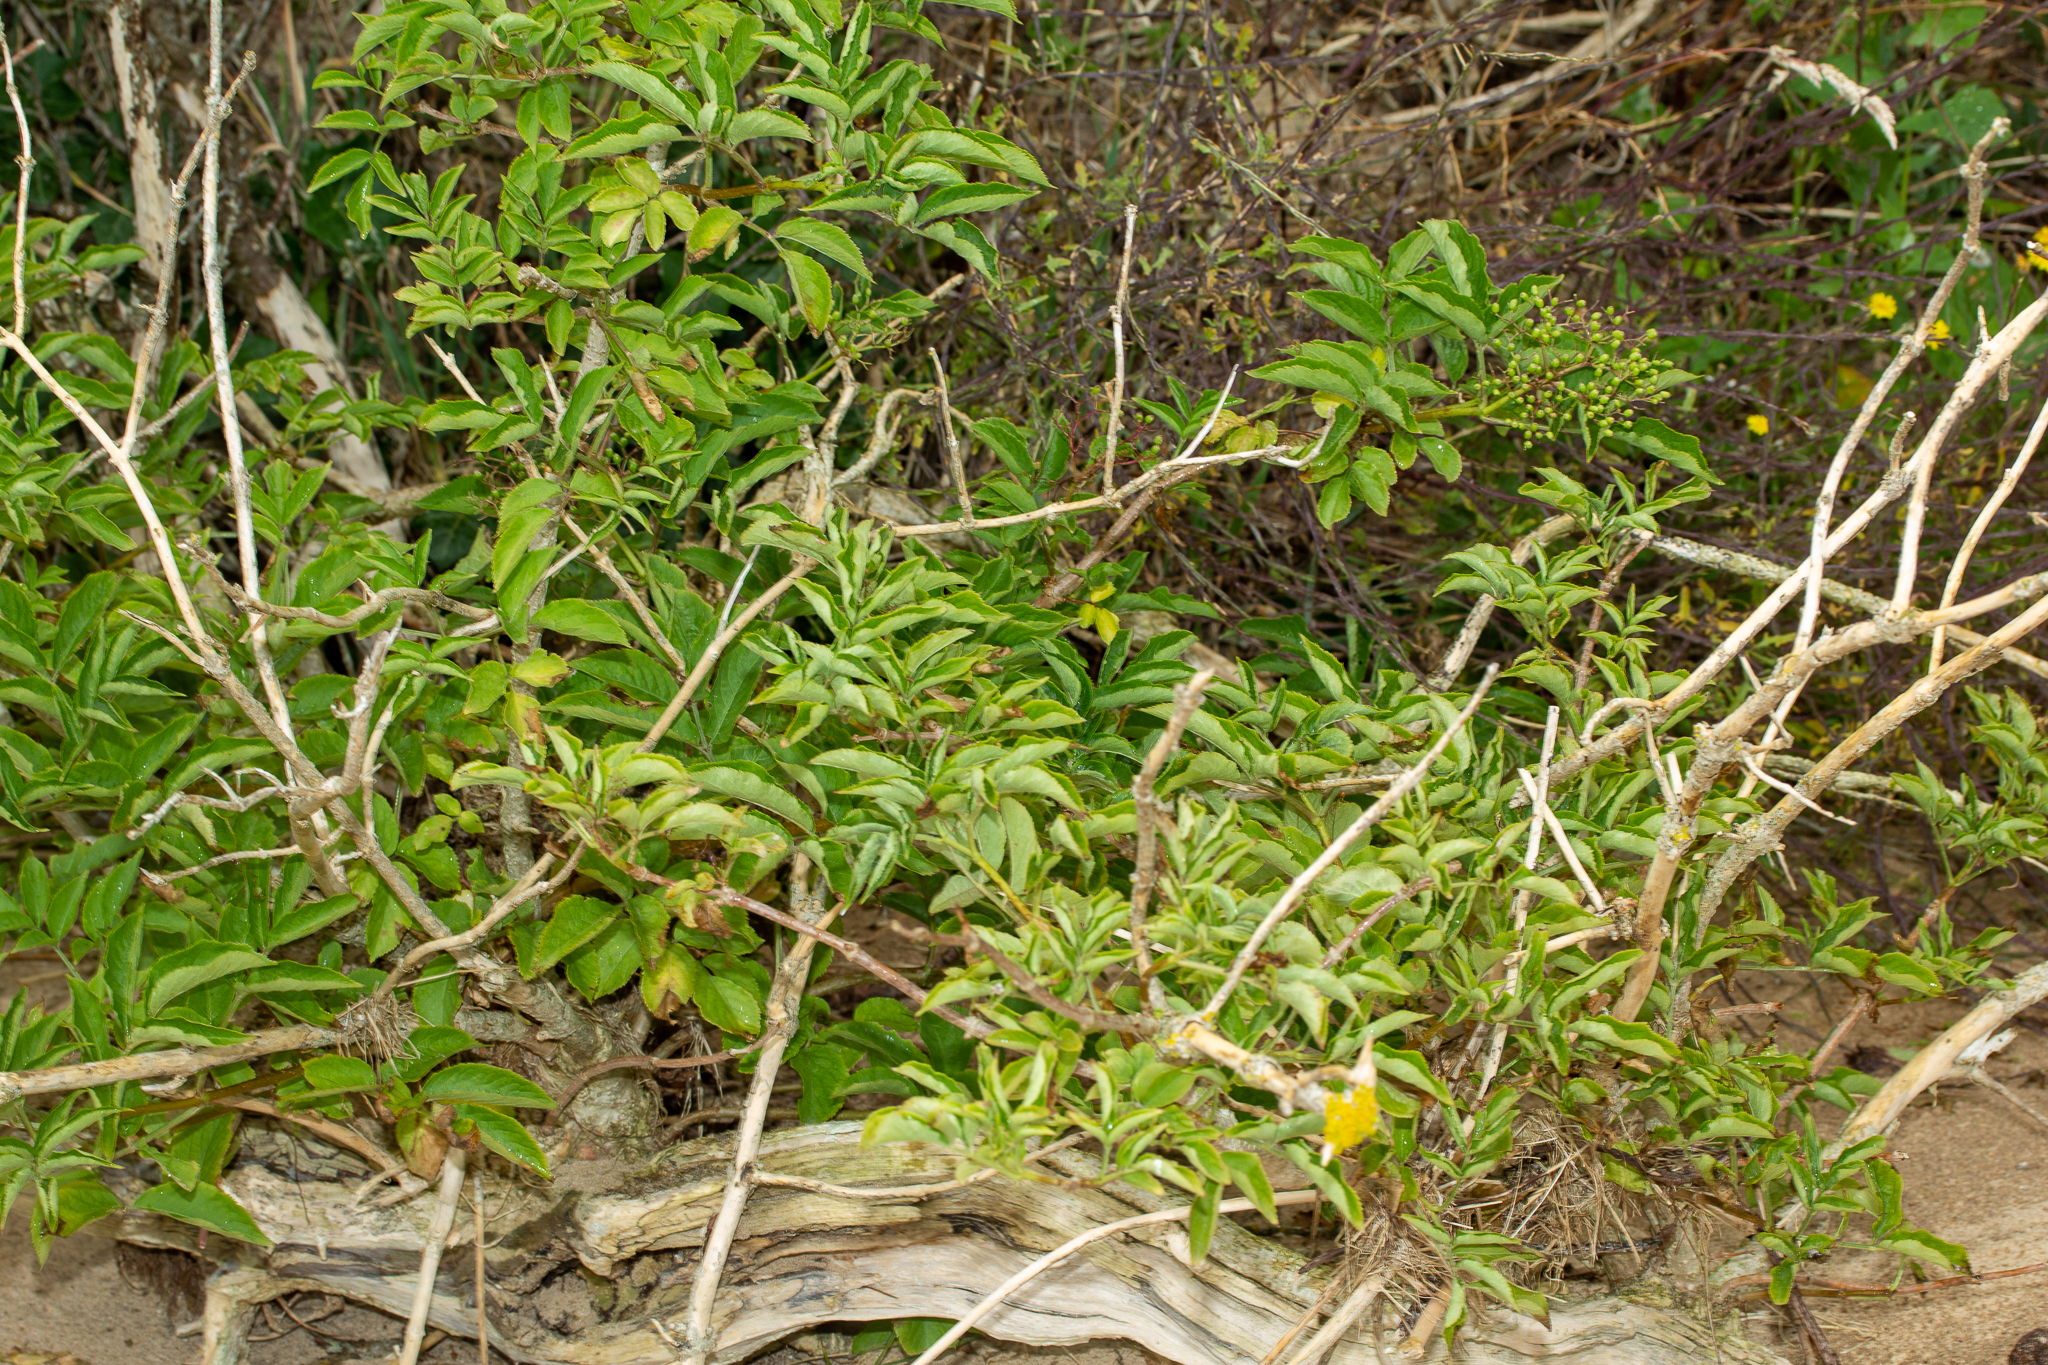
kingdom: Plantae
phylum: Tracheophyta
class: Magnoliopsida
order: Dipsacales
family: Viburnaceae
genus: Sambucus
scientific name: Sambucus nigra
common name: Elder
